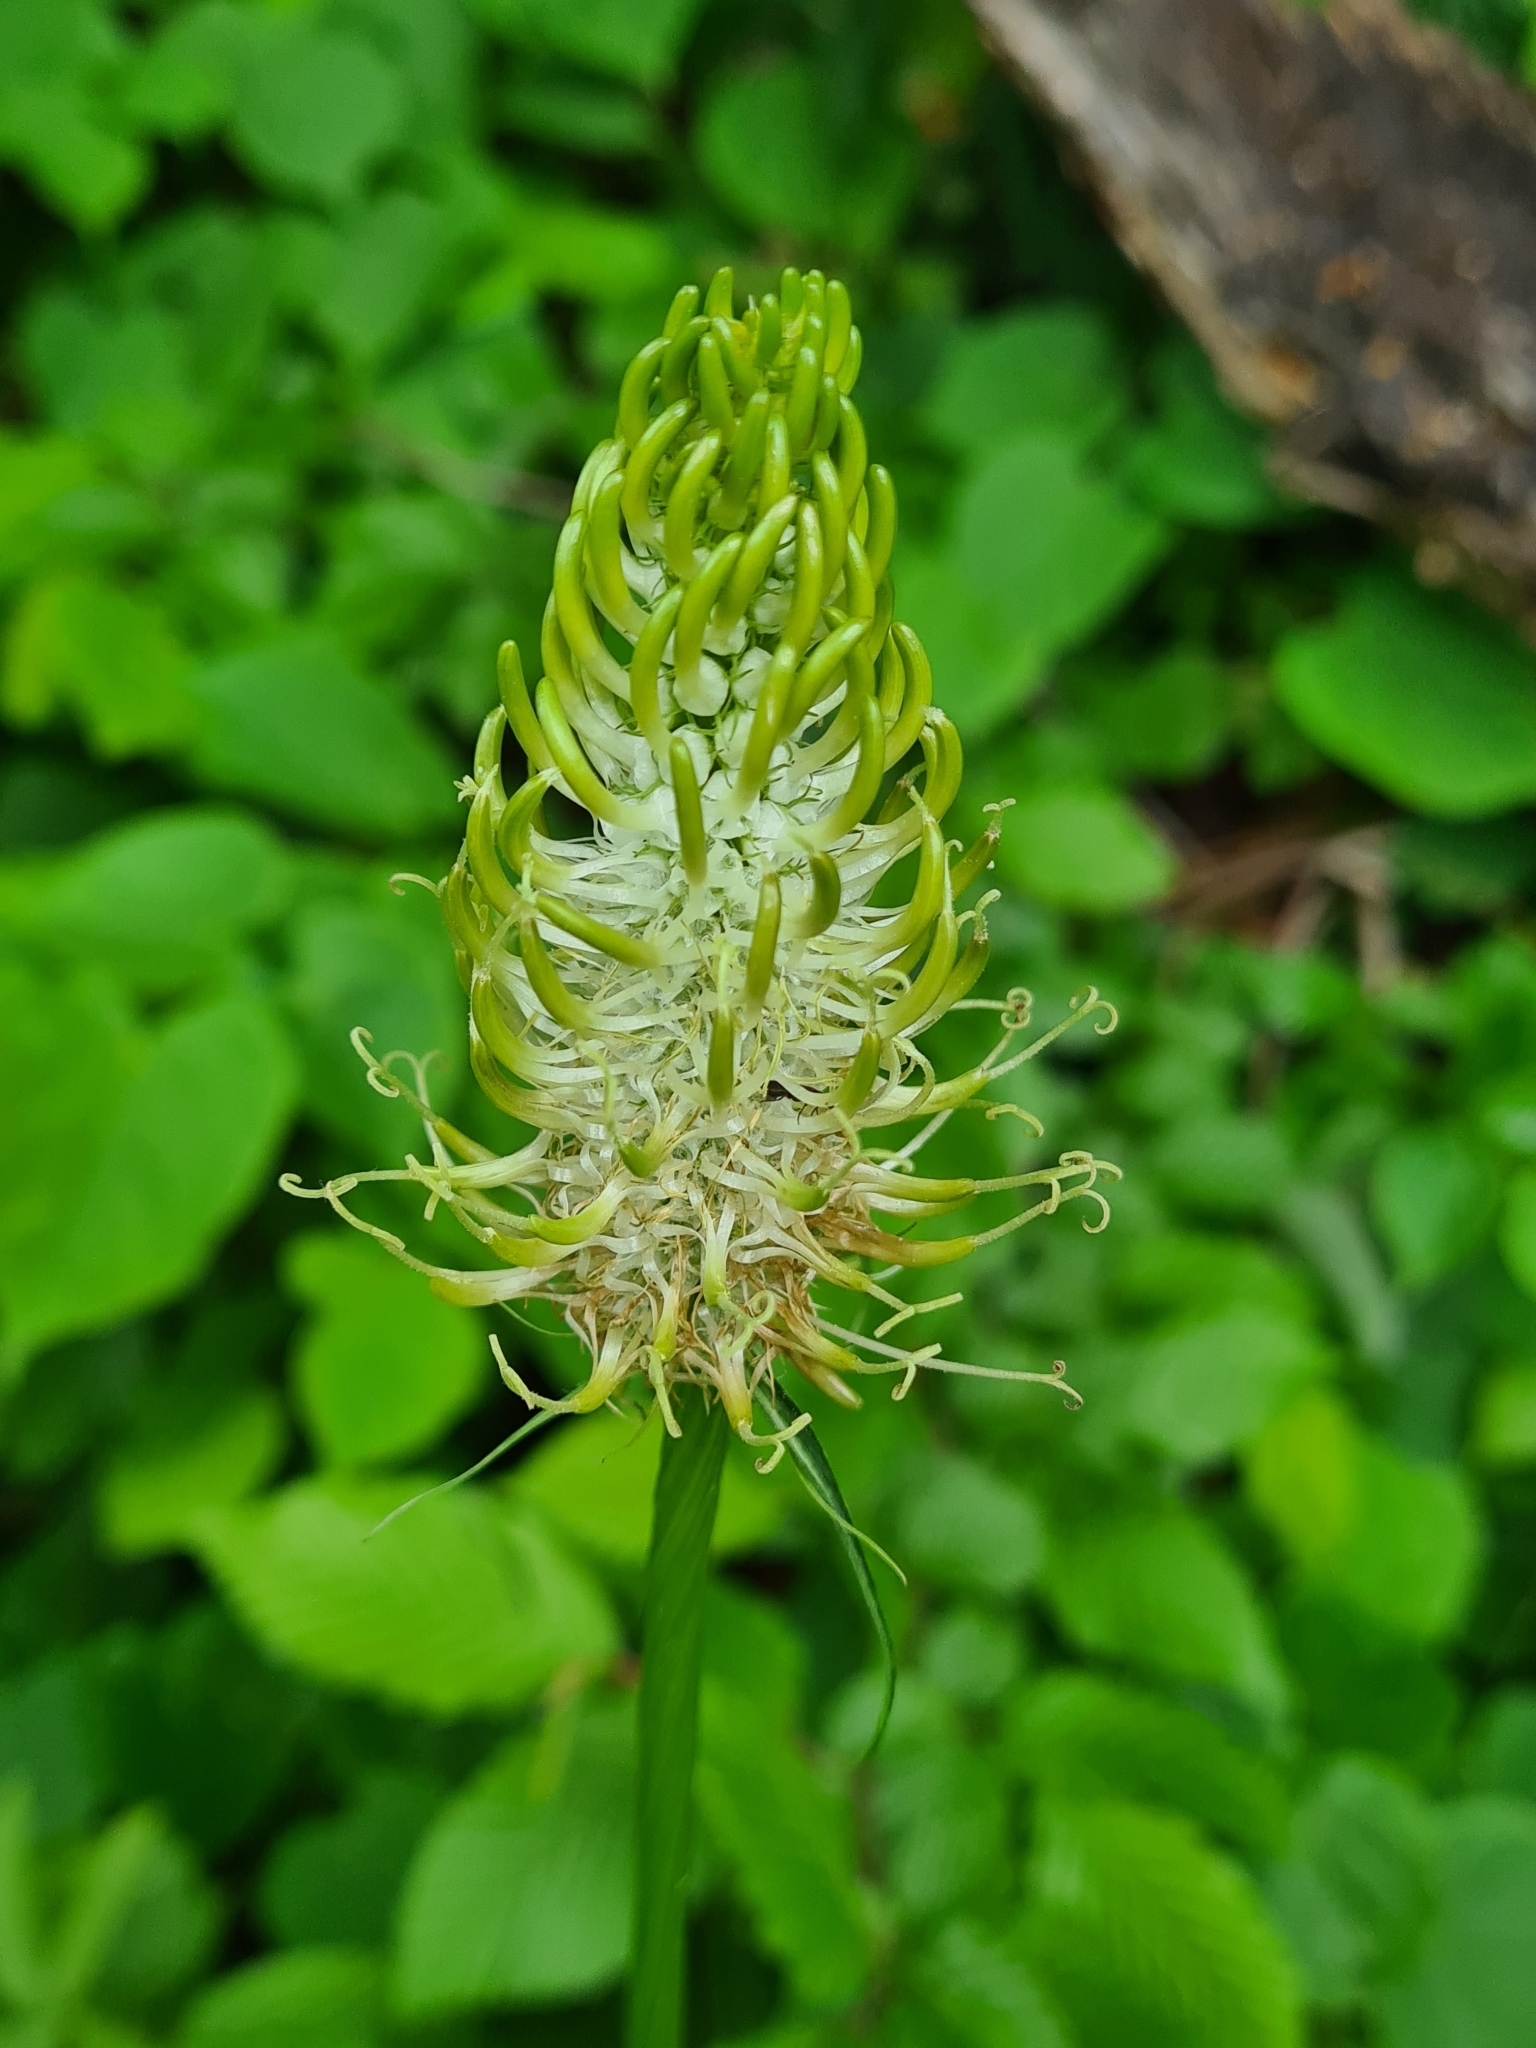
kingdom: Plantae
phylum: Tracheophyta
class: Magnoliopsida
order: Asterales
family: Campanulaceae
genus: Phyteuma
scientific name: Phyteuma spicatum
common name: Spiked rampion
